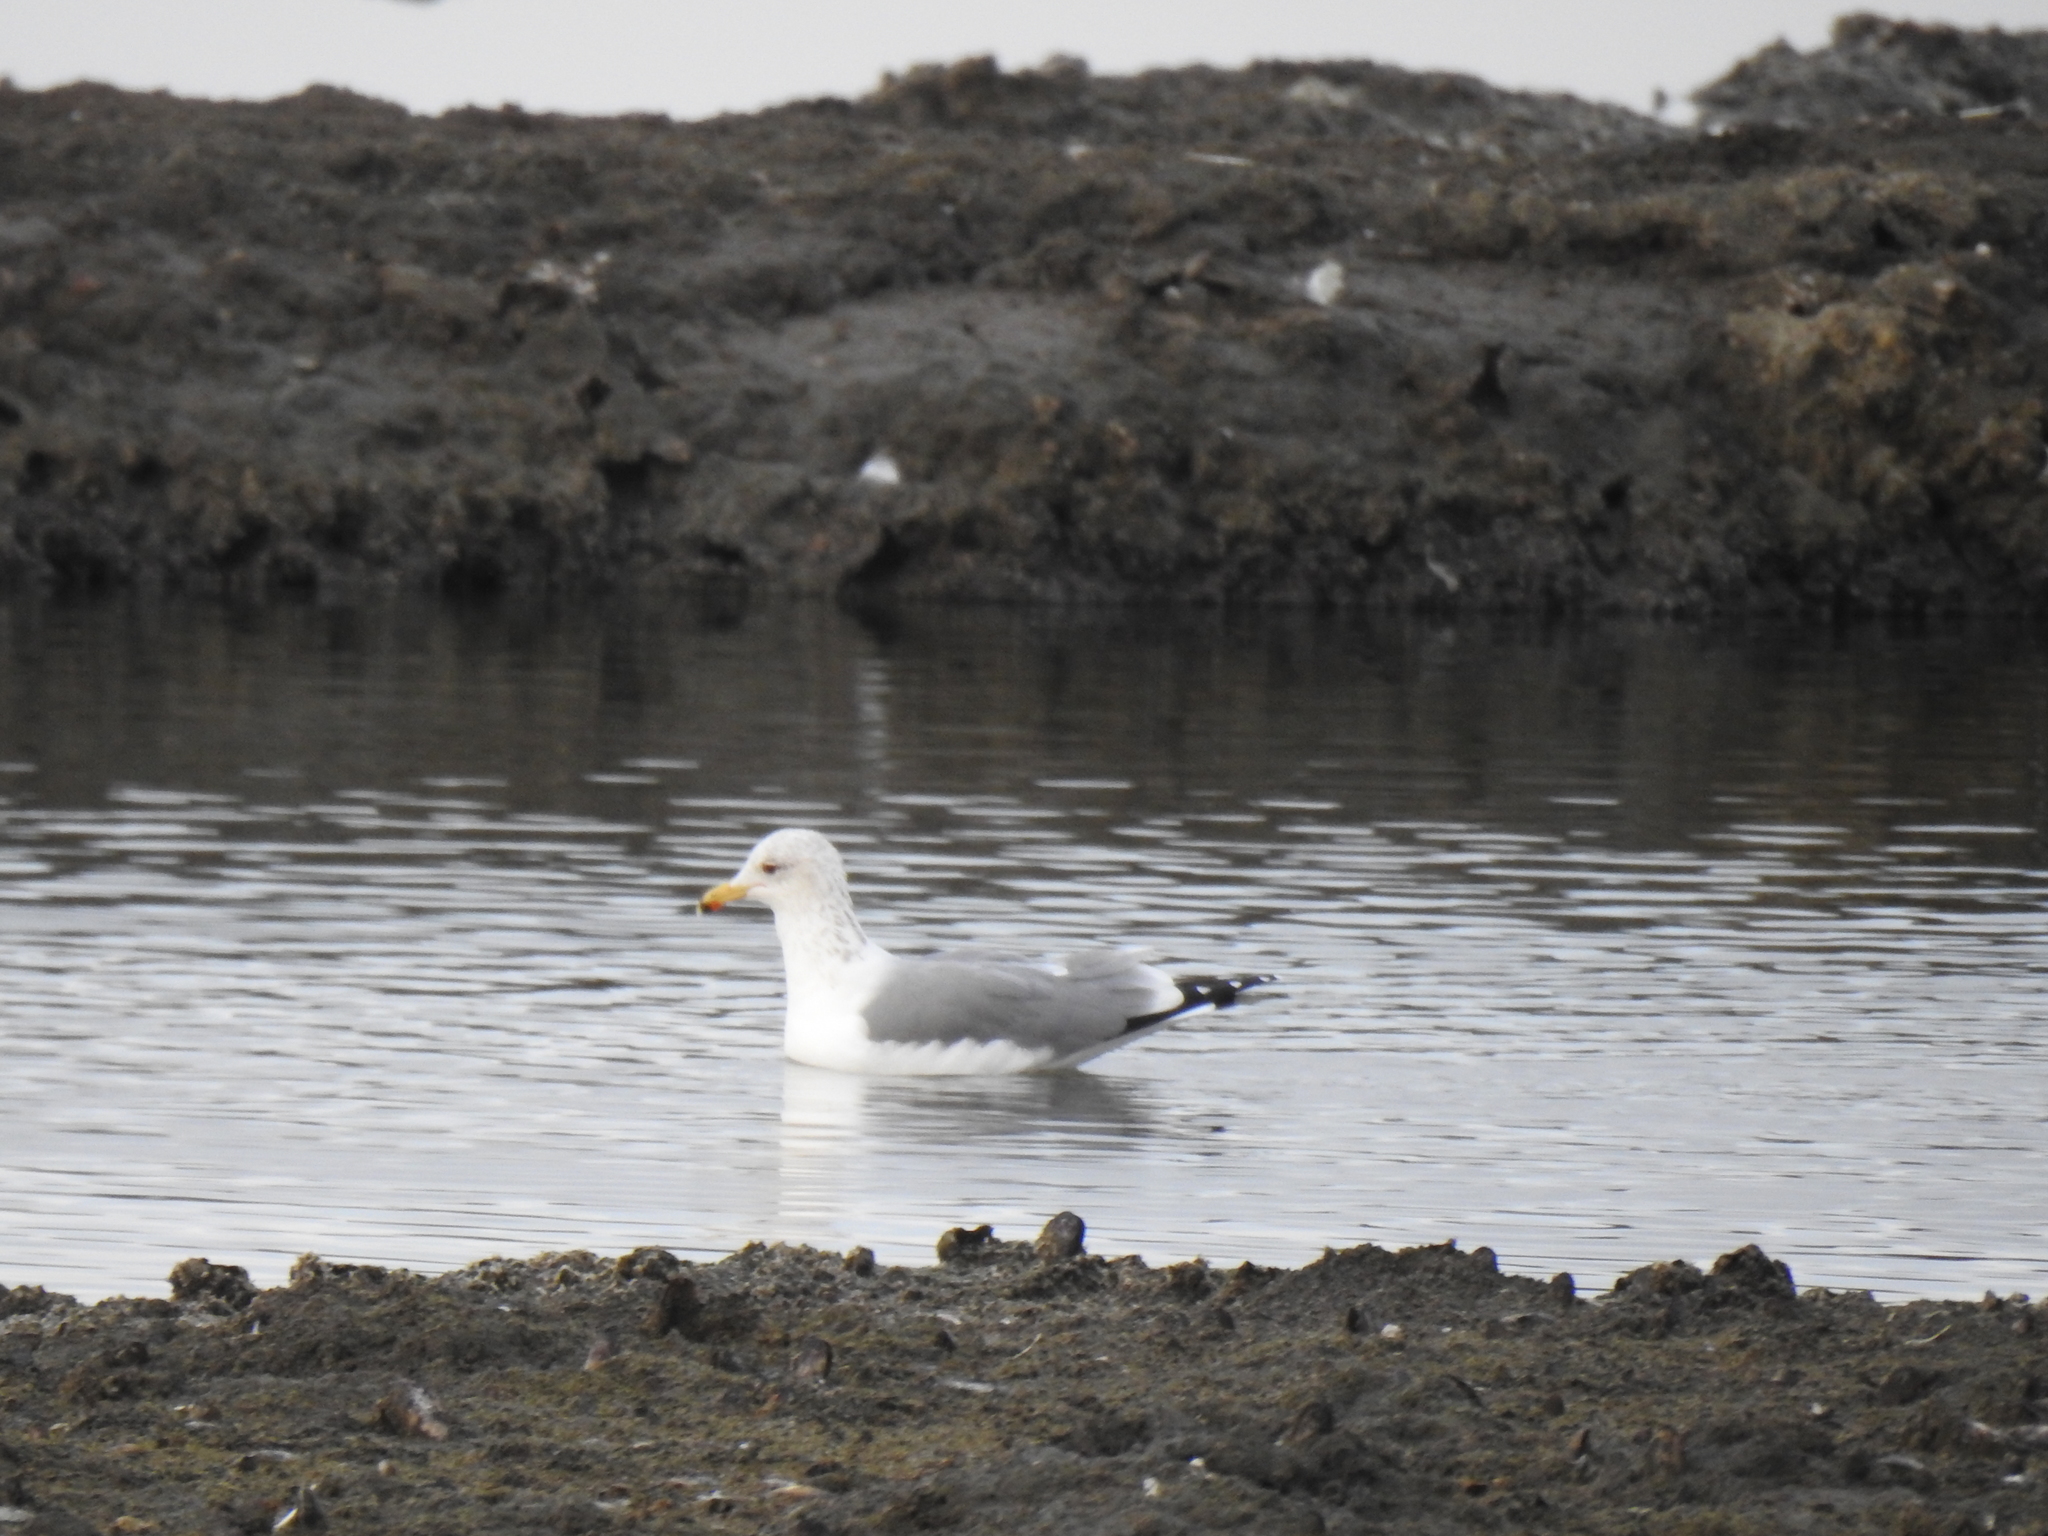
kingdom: Animalia
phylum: Chordata
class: Aves
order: Charadriiformes
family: Laridae
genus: Larus
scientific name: Larus californicus
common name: California gull
